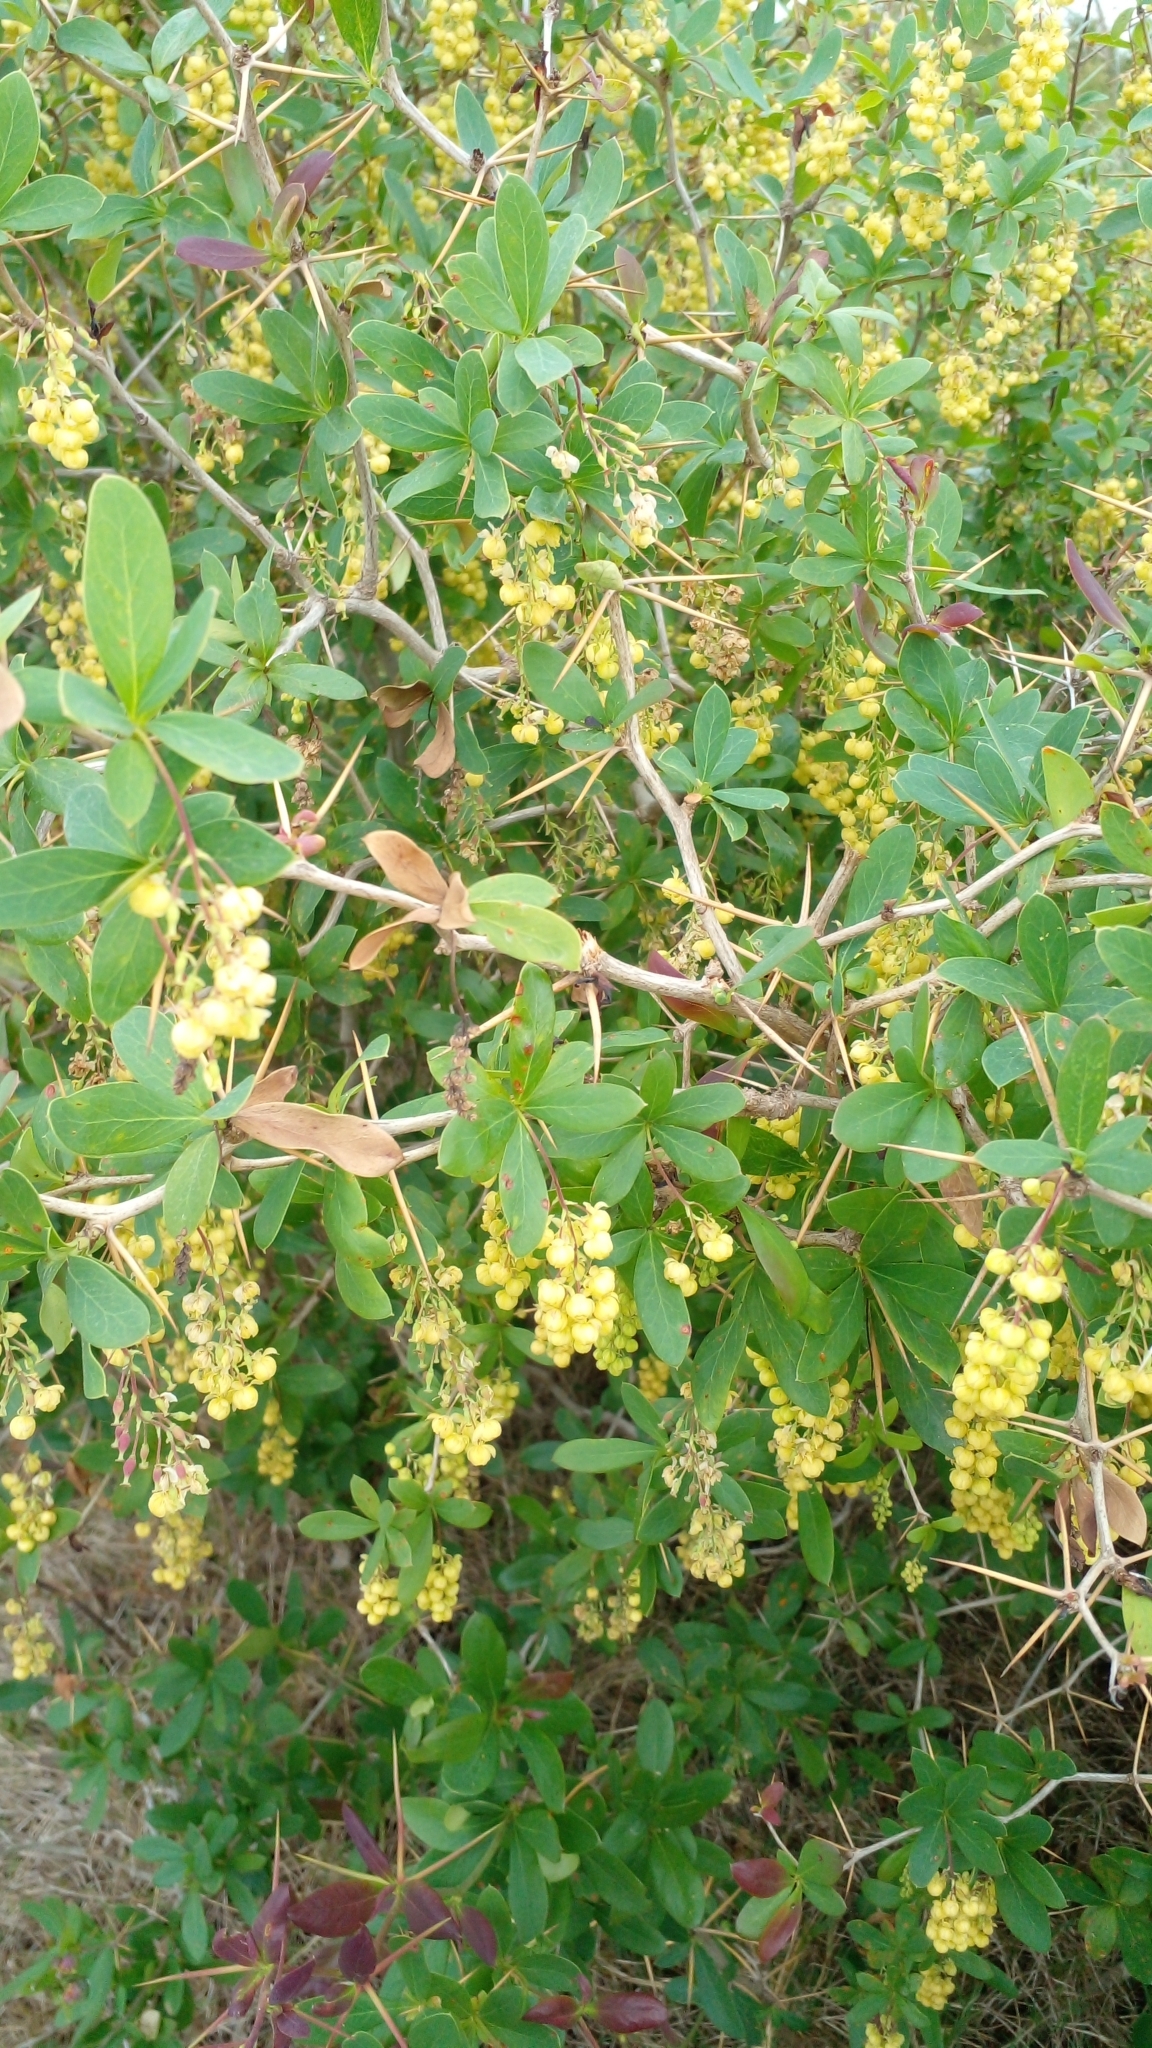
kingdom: Plantae
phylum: Tracheophyta
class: Magnoliopsida
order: Ranunculales
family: Berberidaceae
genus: Berberis
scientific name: Berberis laurina
